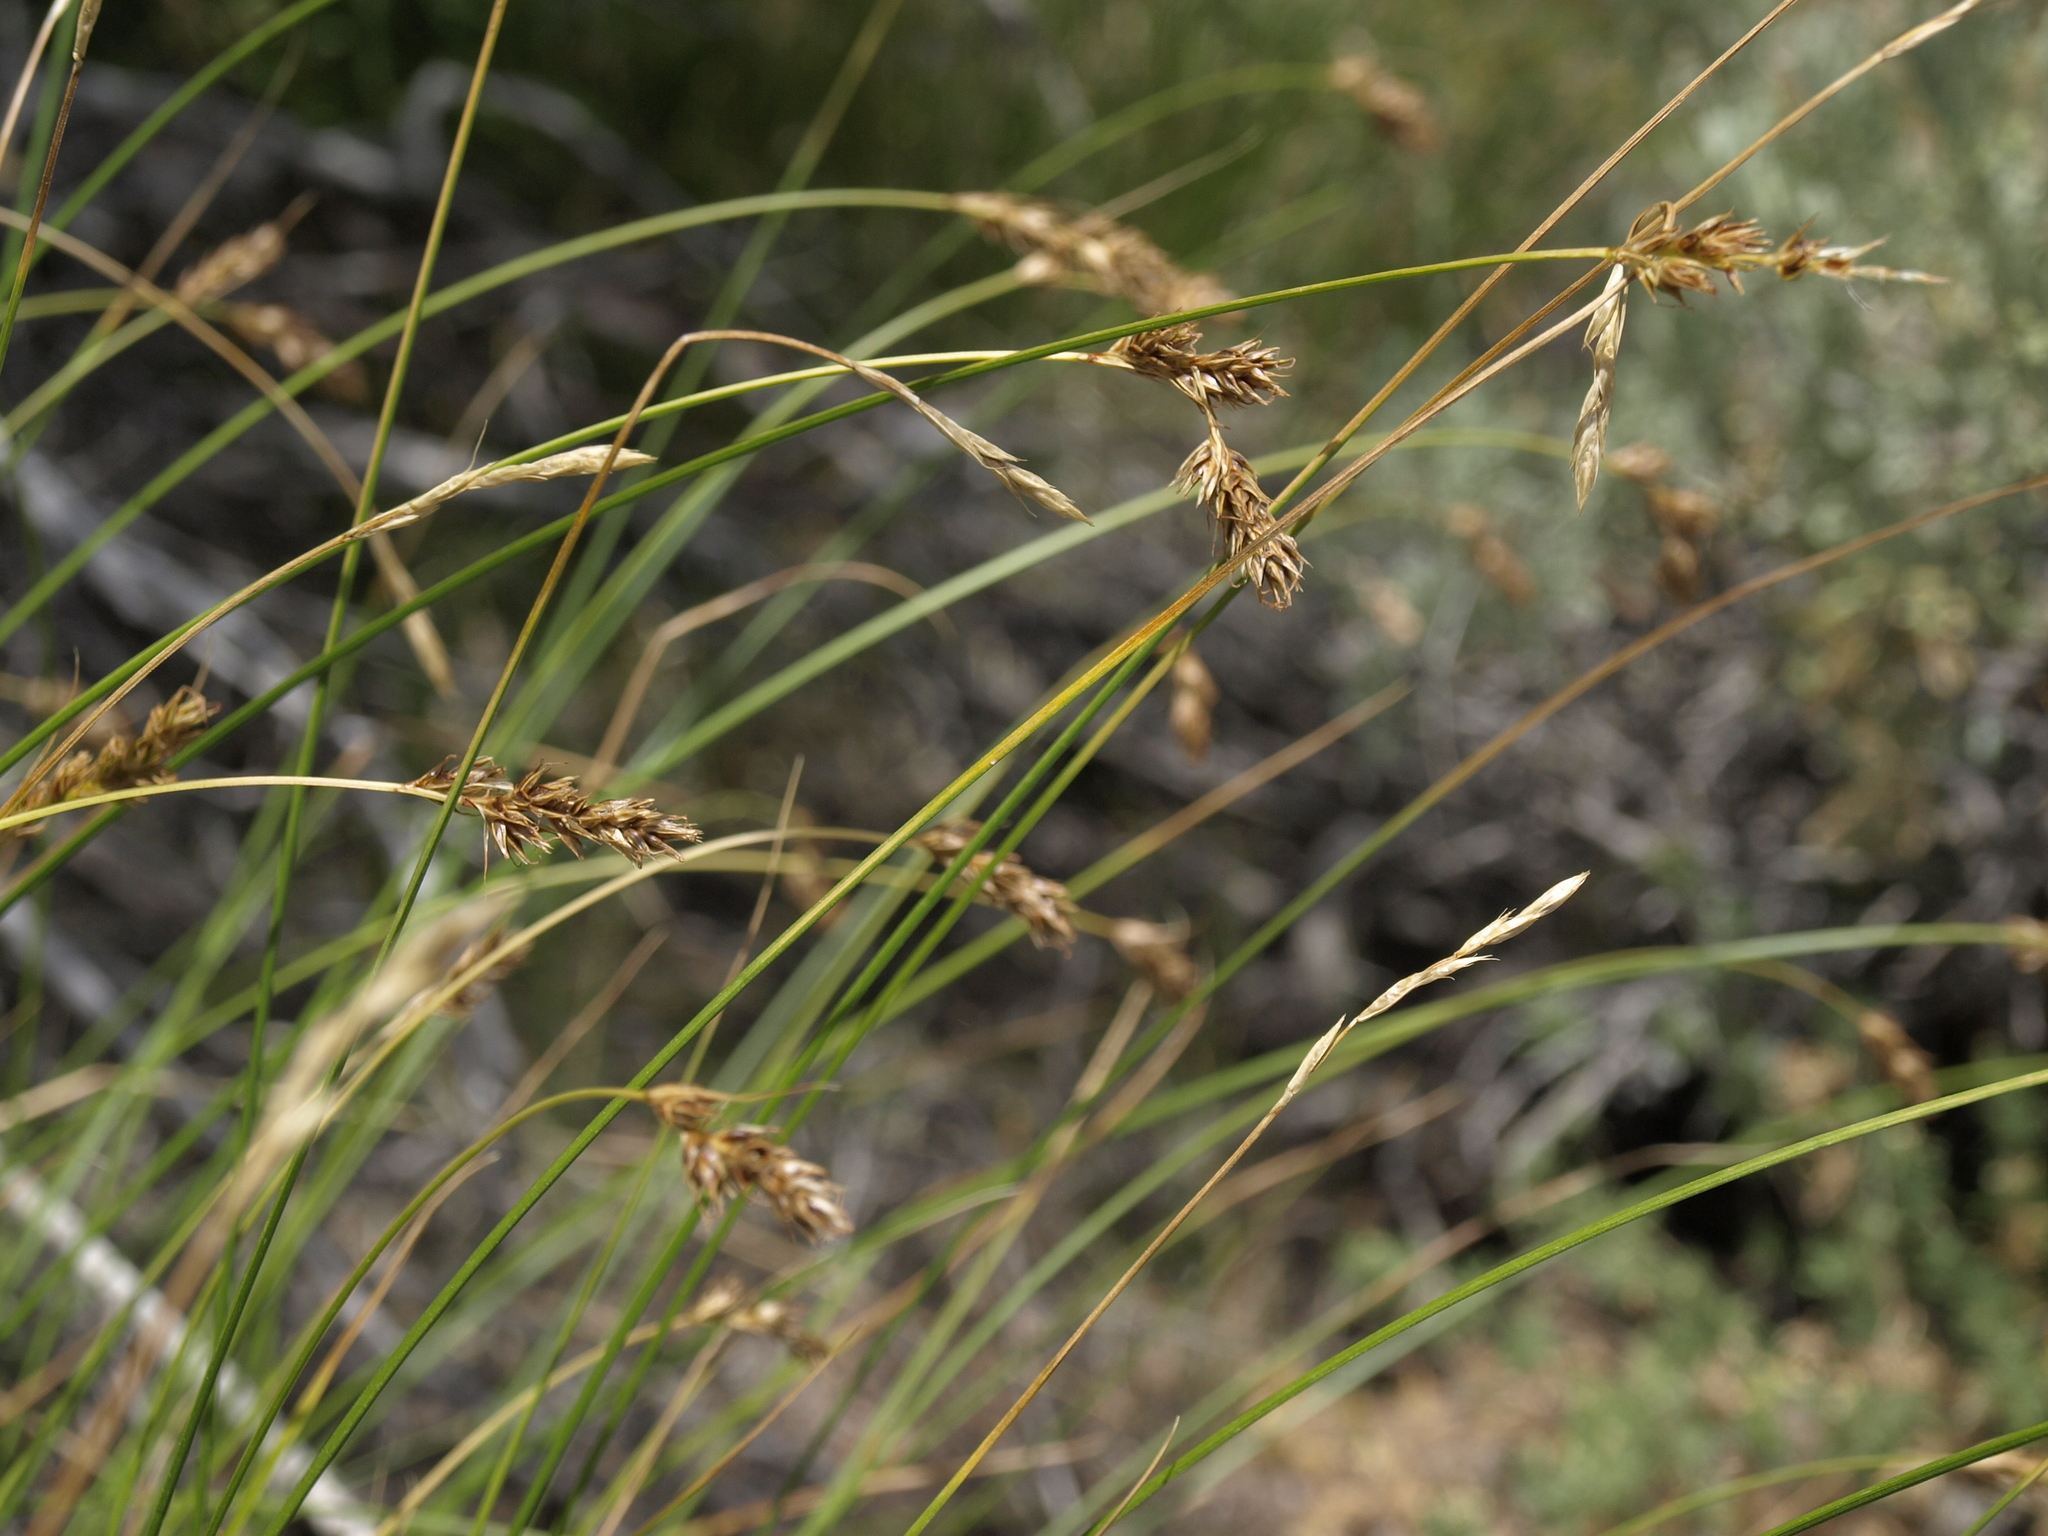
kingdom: Plantae
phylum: Tracheophyta
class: Liliopsida
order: Poales
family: Cyperaceae
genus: Carex
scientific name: Carex occidentalis
